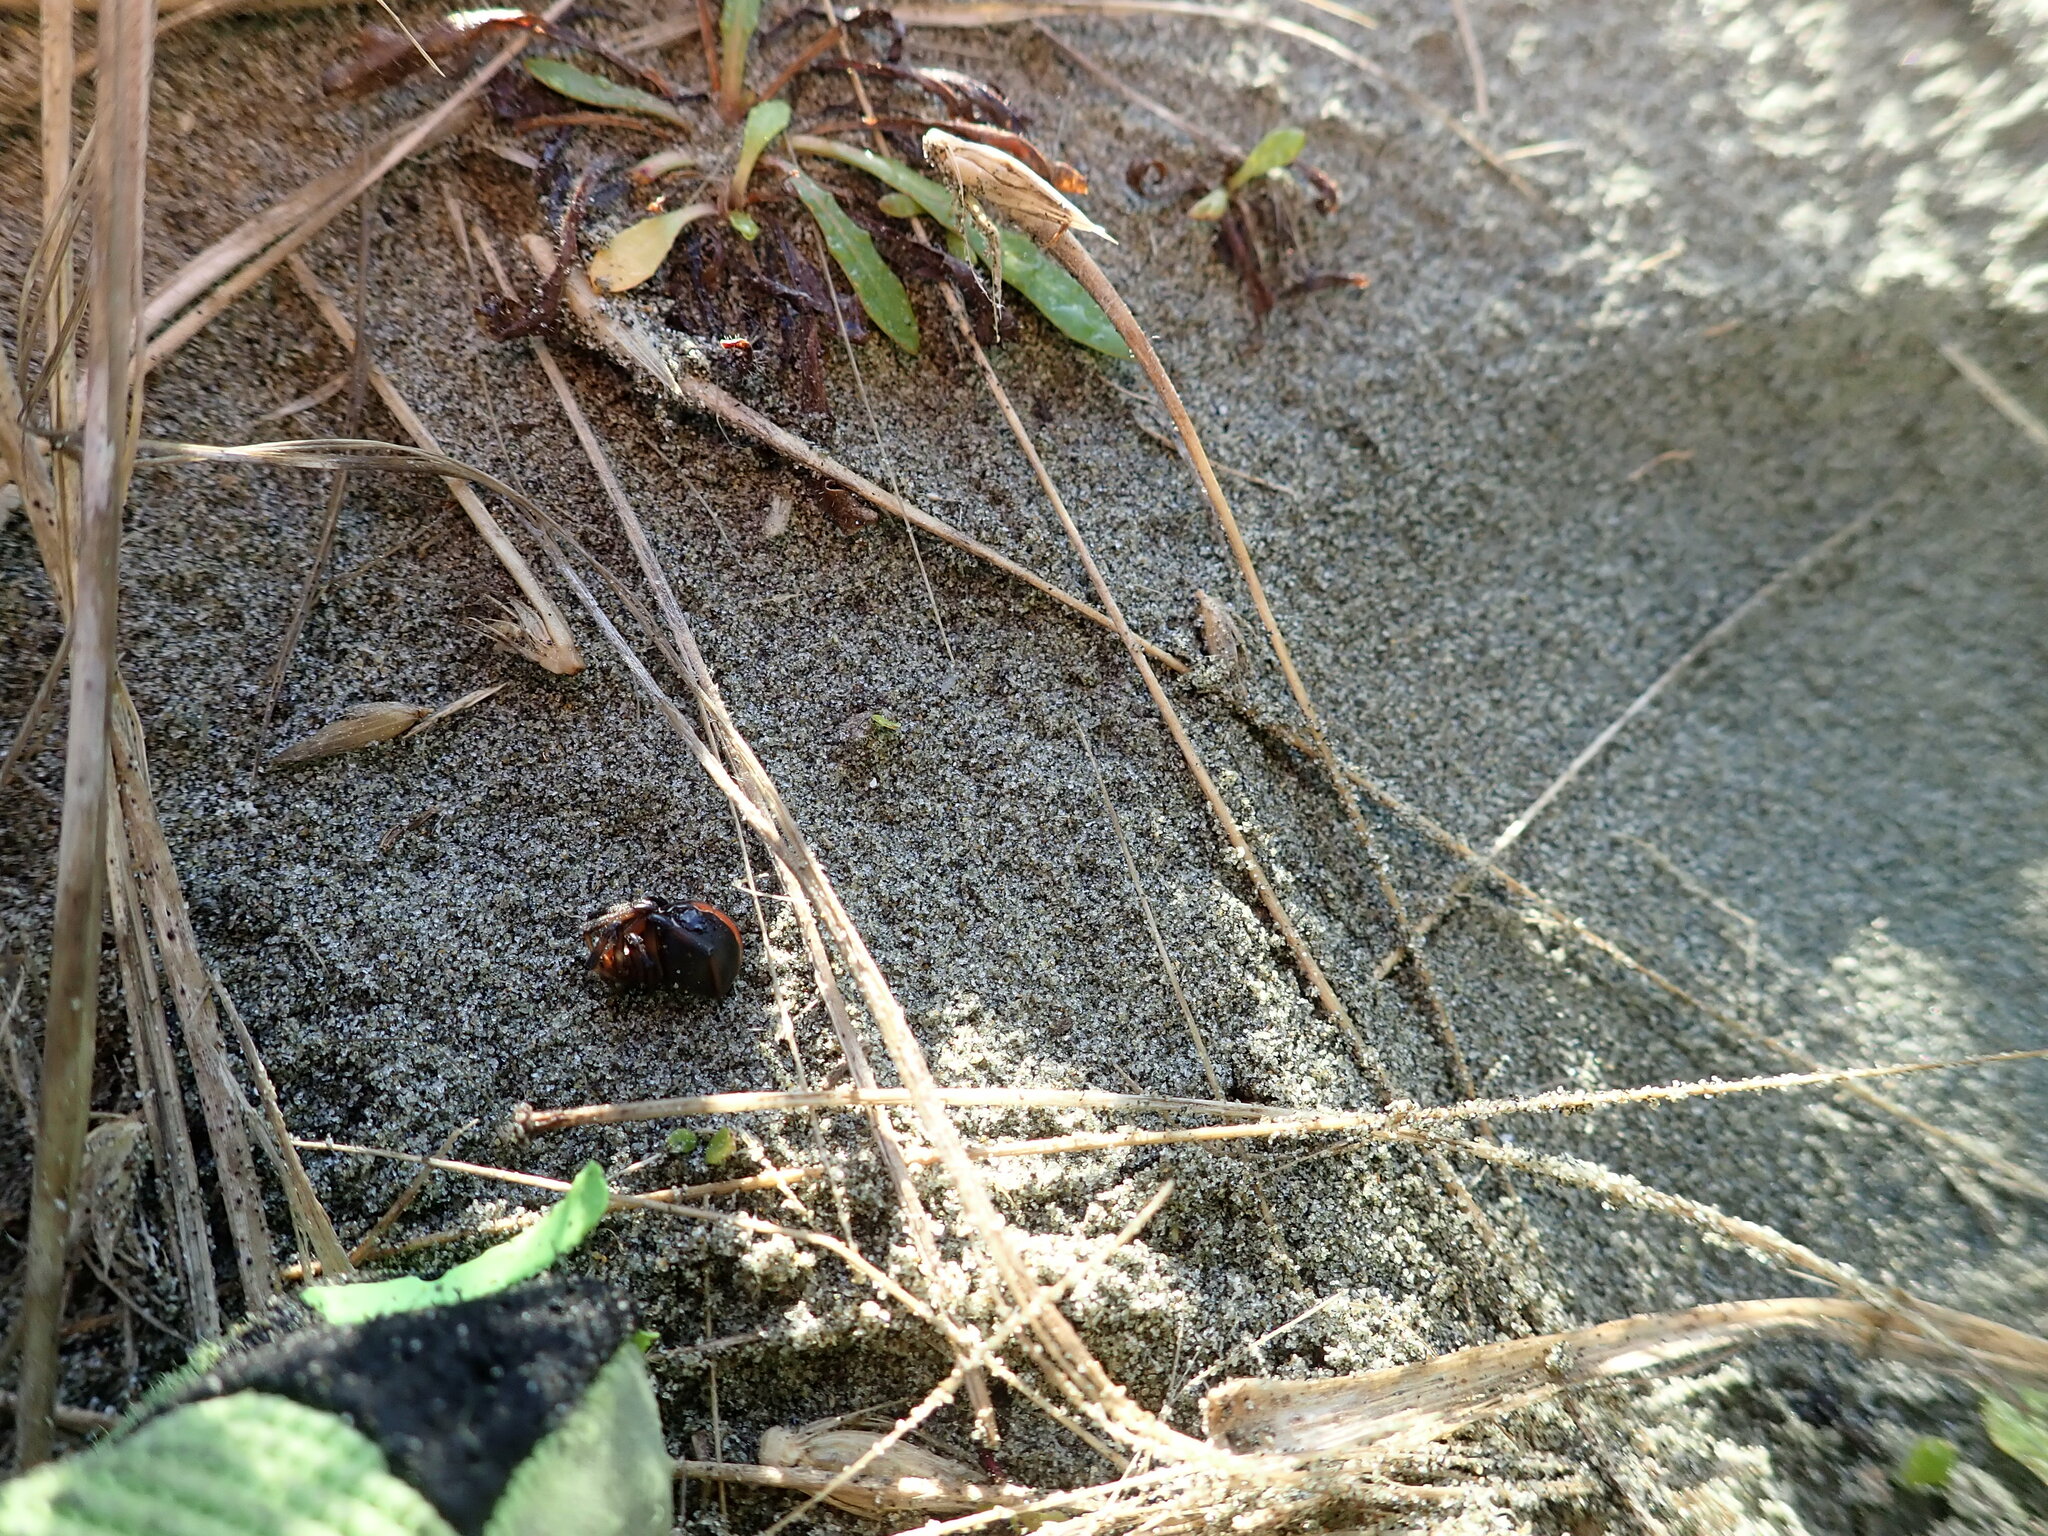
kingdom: Animalia
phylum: Arthropoda
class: Arachnida
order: Araneae
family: Theridiidae
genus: Latrodectus
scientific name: Latrodectus katipo
